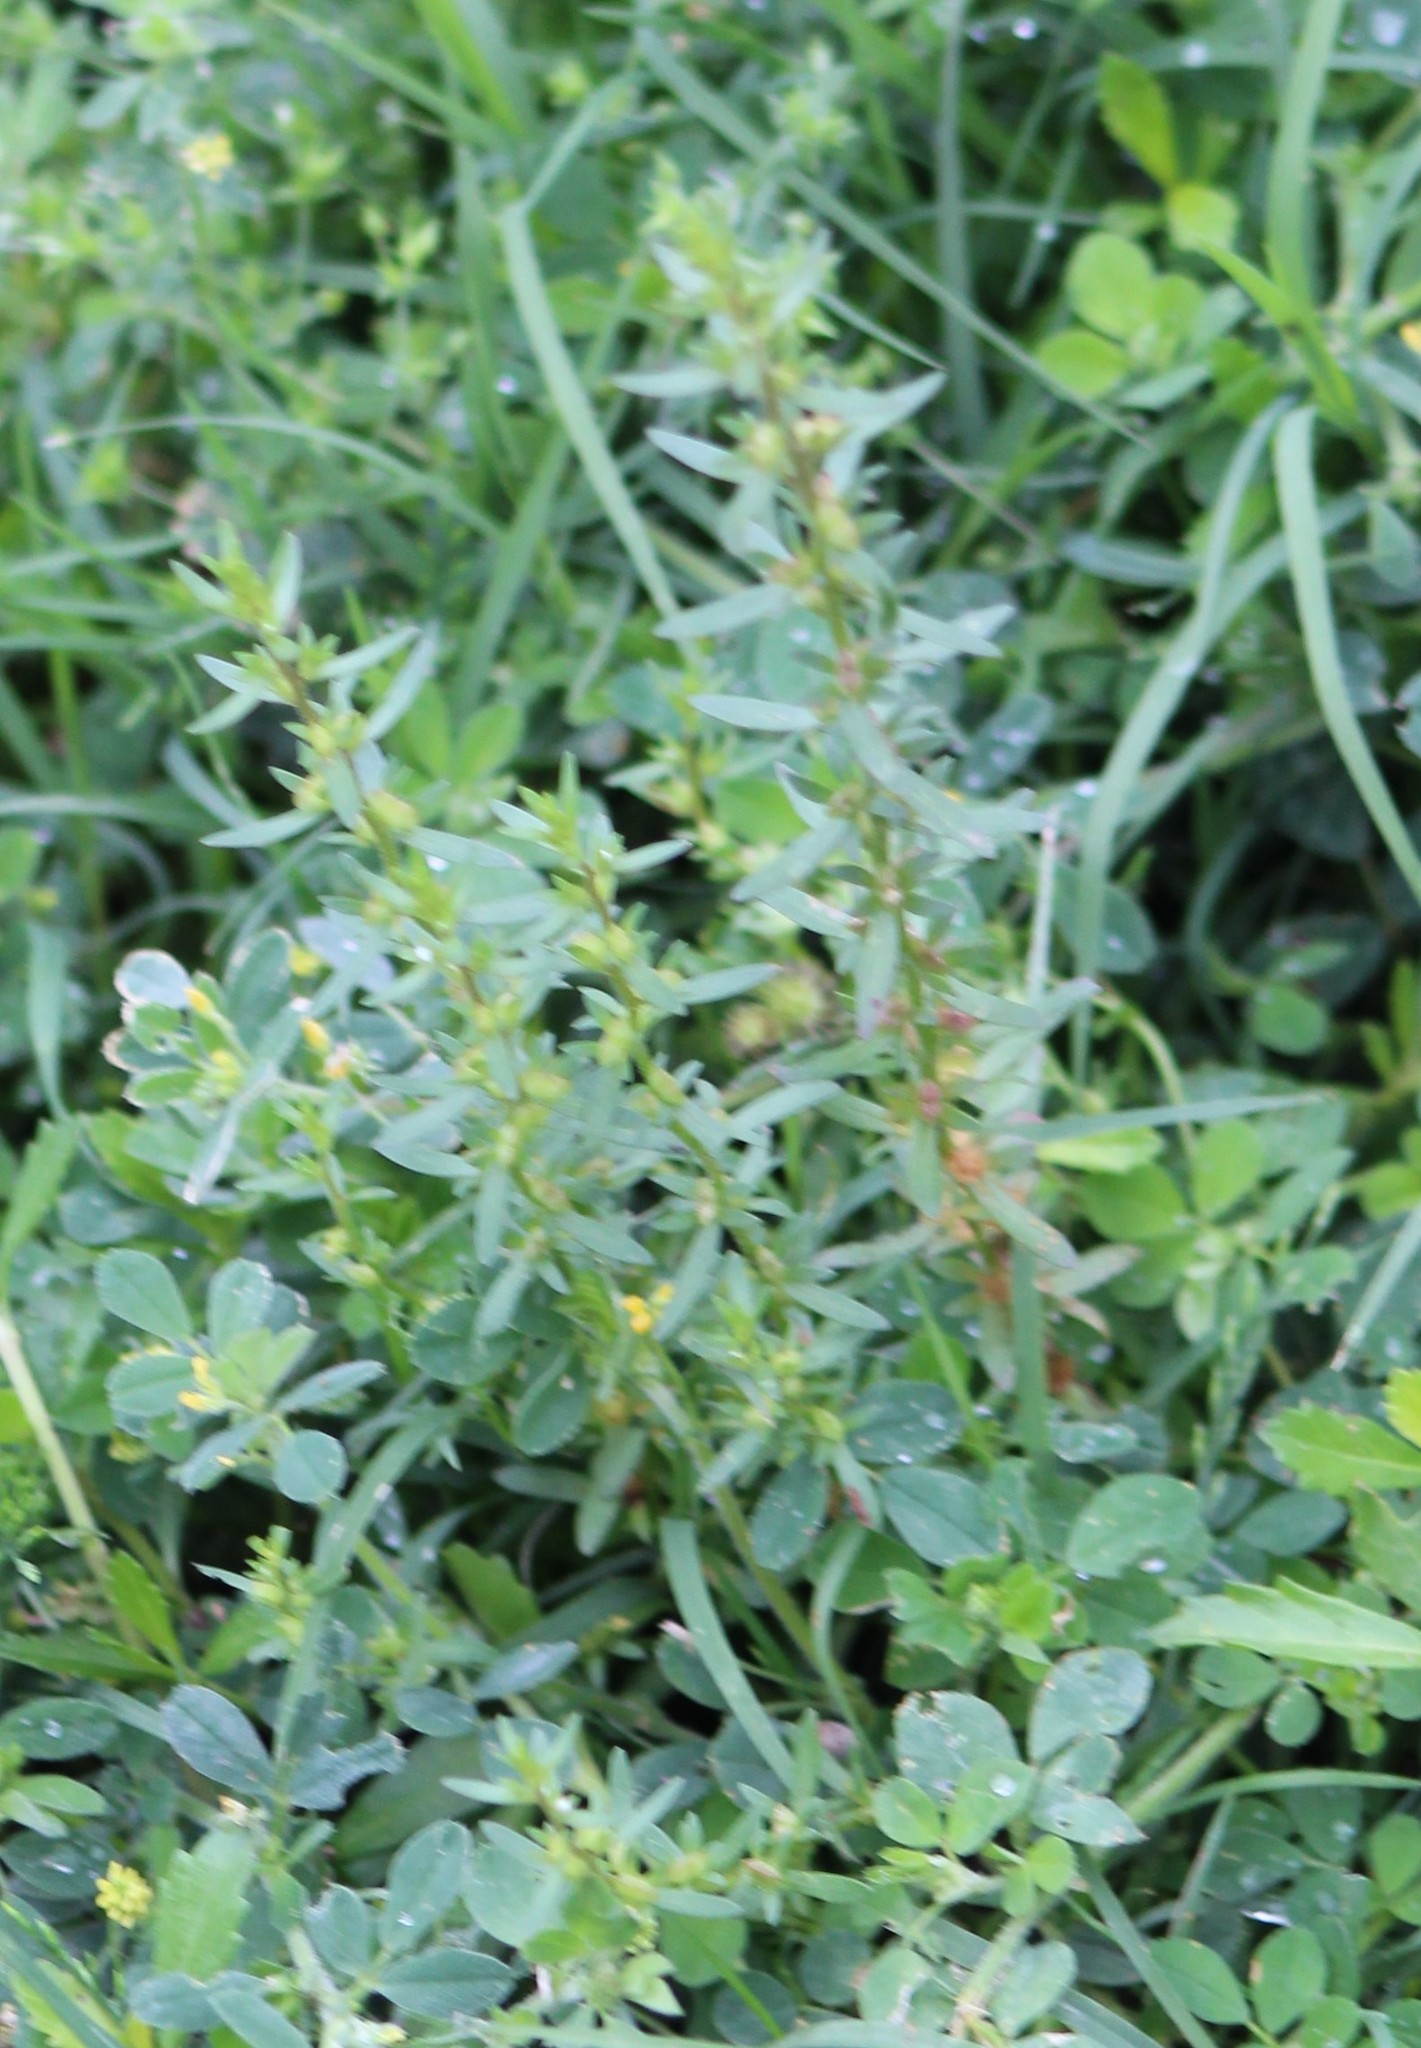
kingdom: Plantae
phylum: Tracheophyta
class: Magnoliopsida
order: Lamiales
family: Plantaginaceae
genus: Veronica
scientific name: Veronica peregrina
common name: Neckweed
